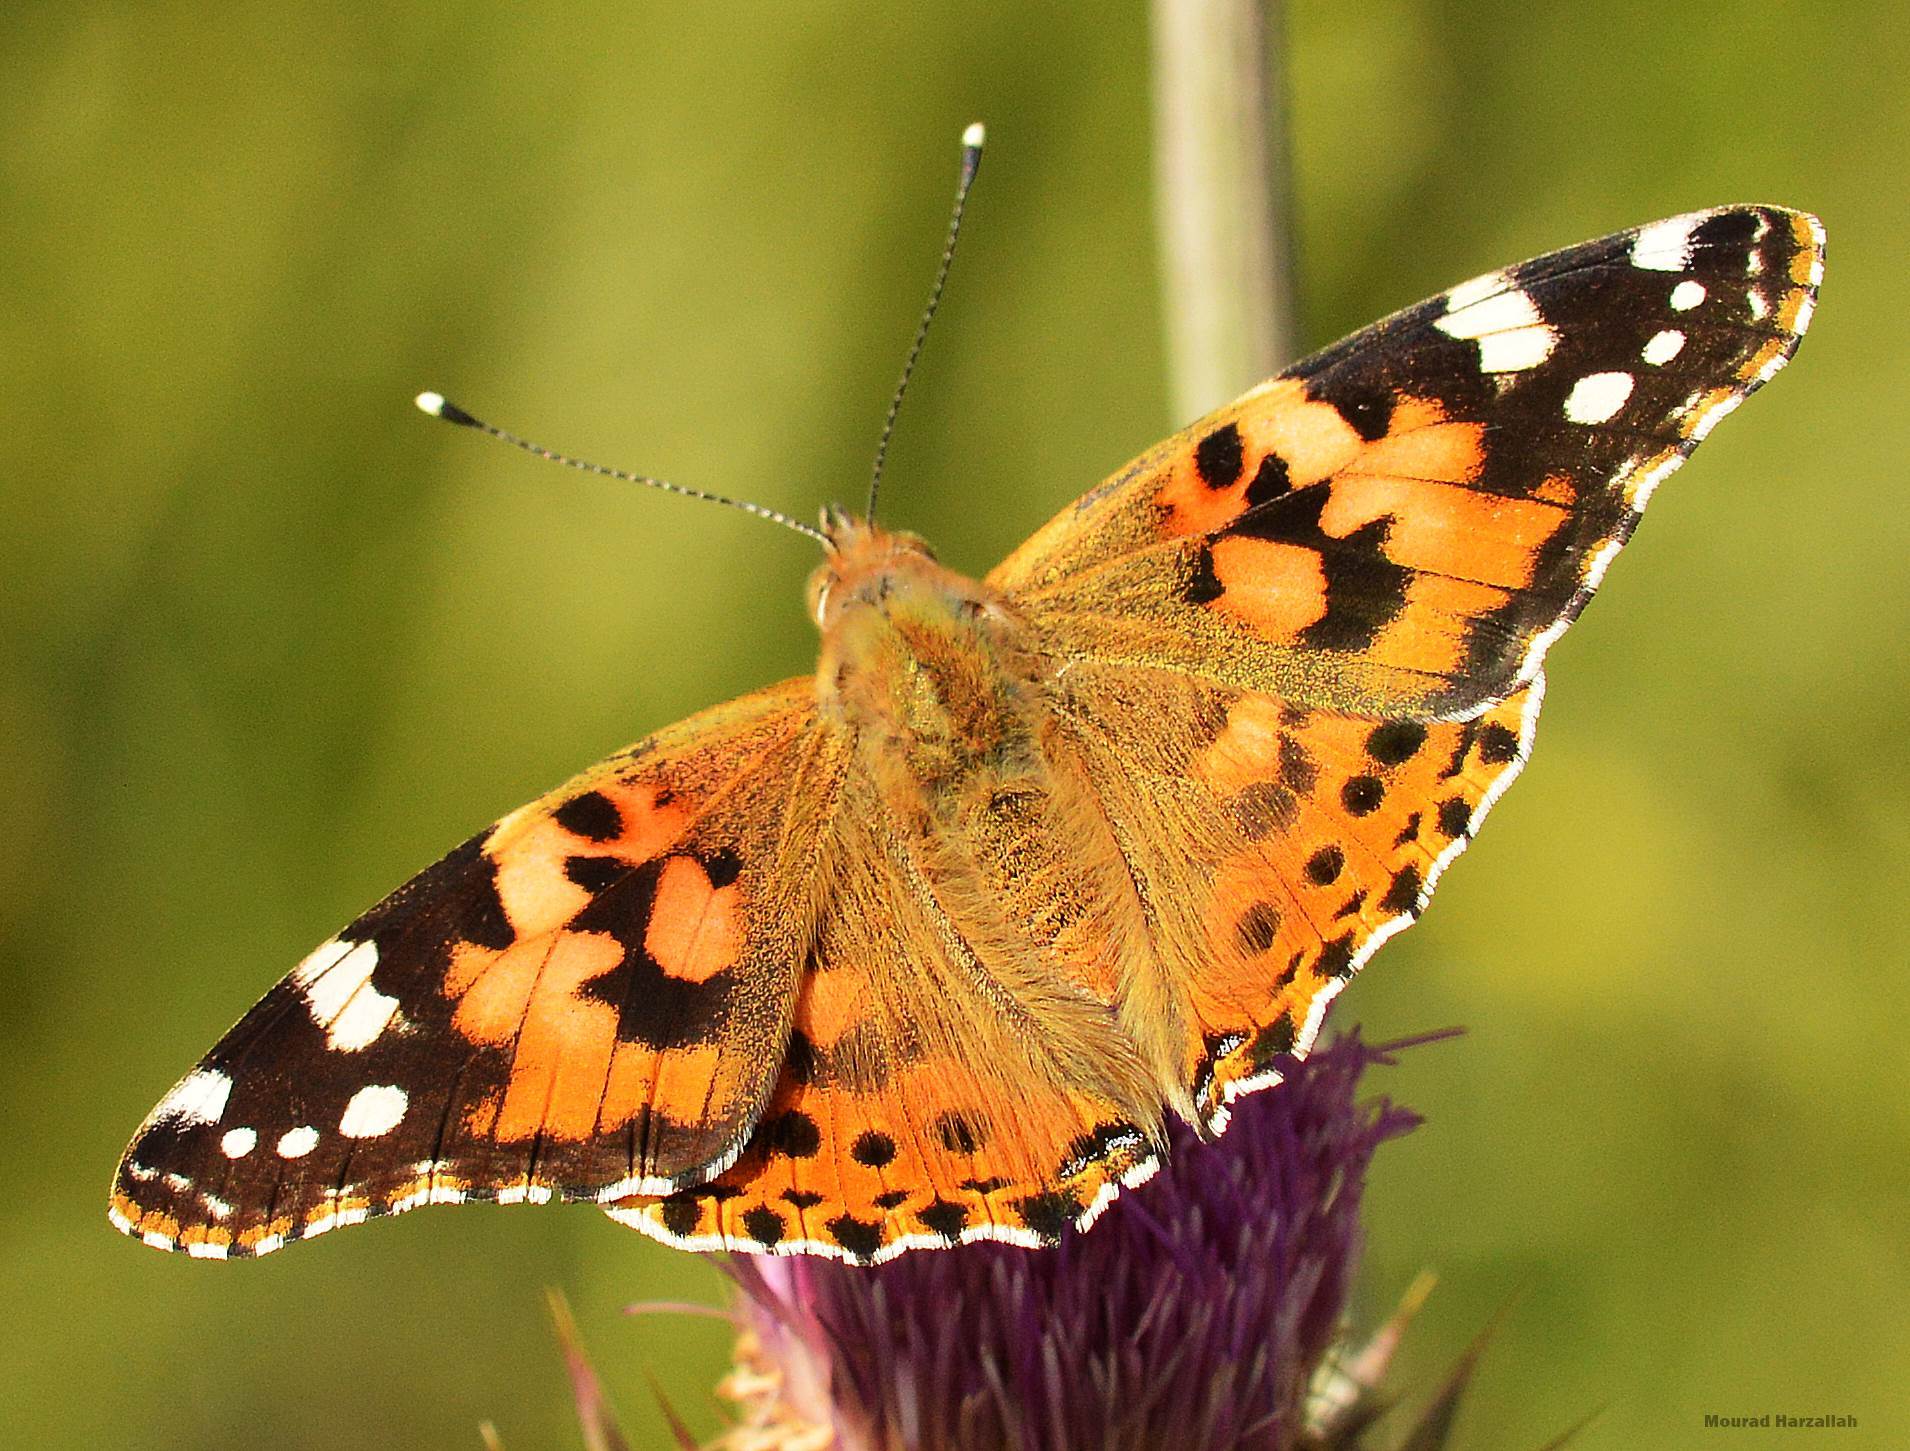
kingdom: Animalia
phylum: Arthropoda
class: Insecta
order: Lepidoptera
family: Nymphalidae
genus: Vanessa
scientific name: Vanessa cardui
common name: Painted lady
